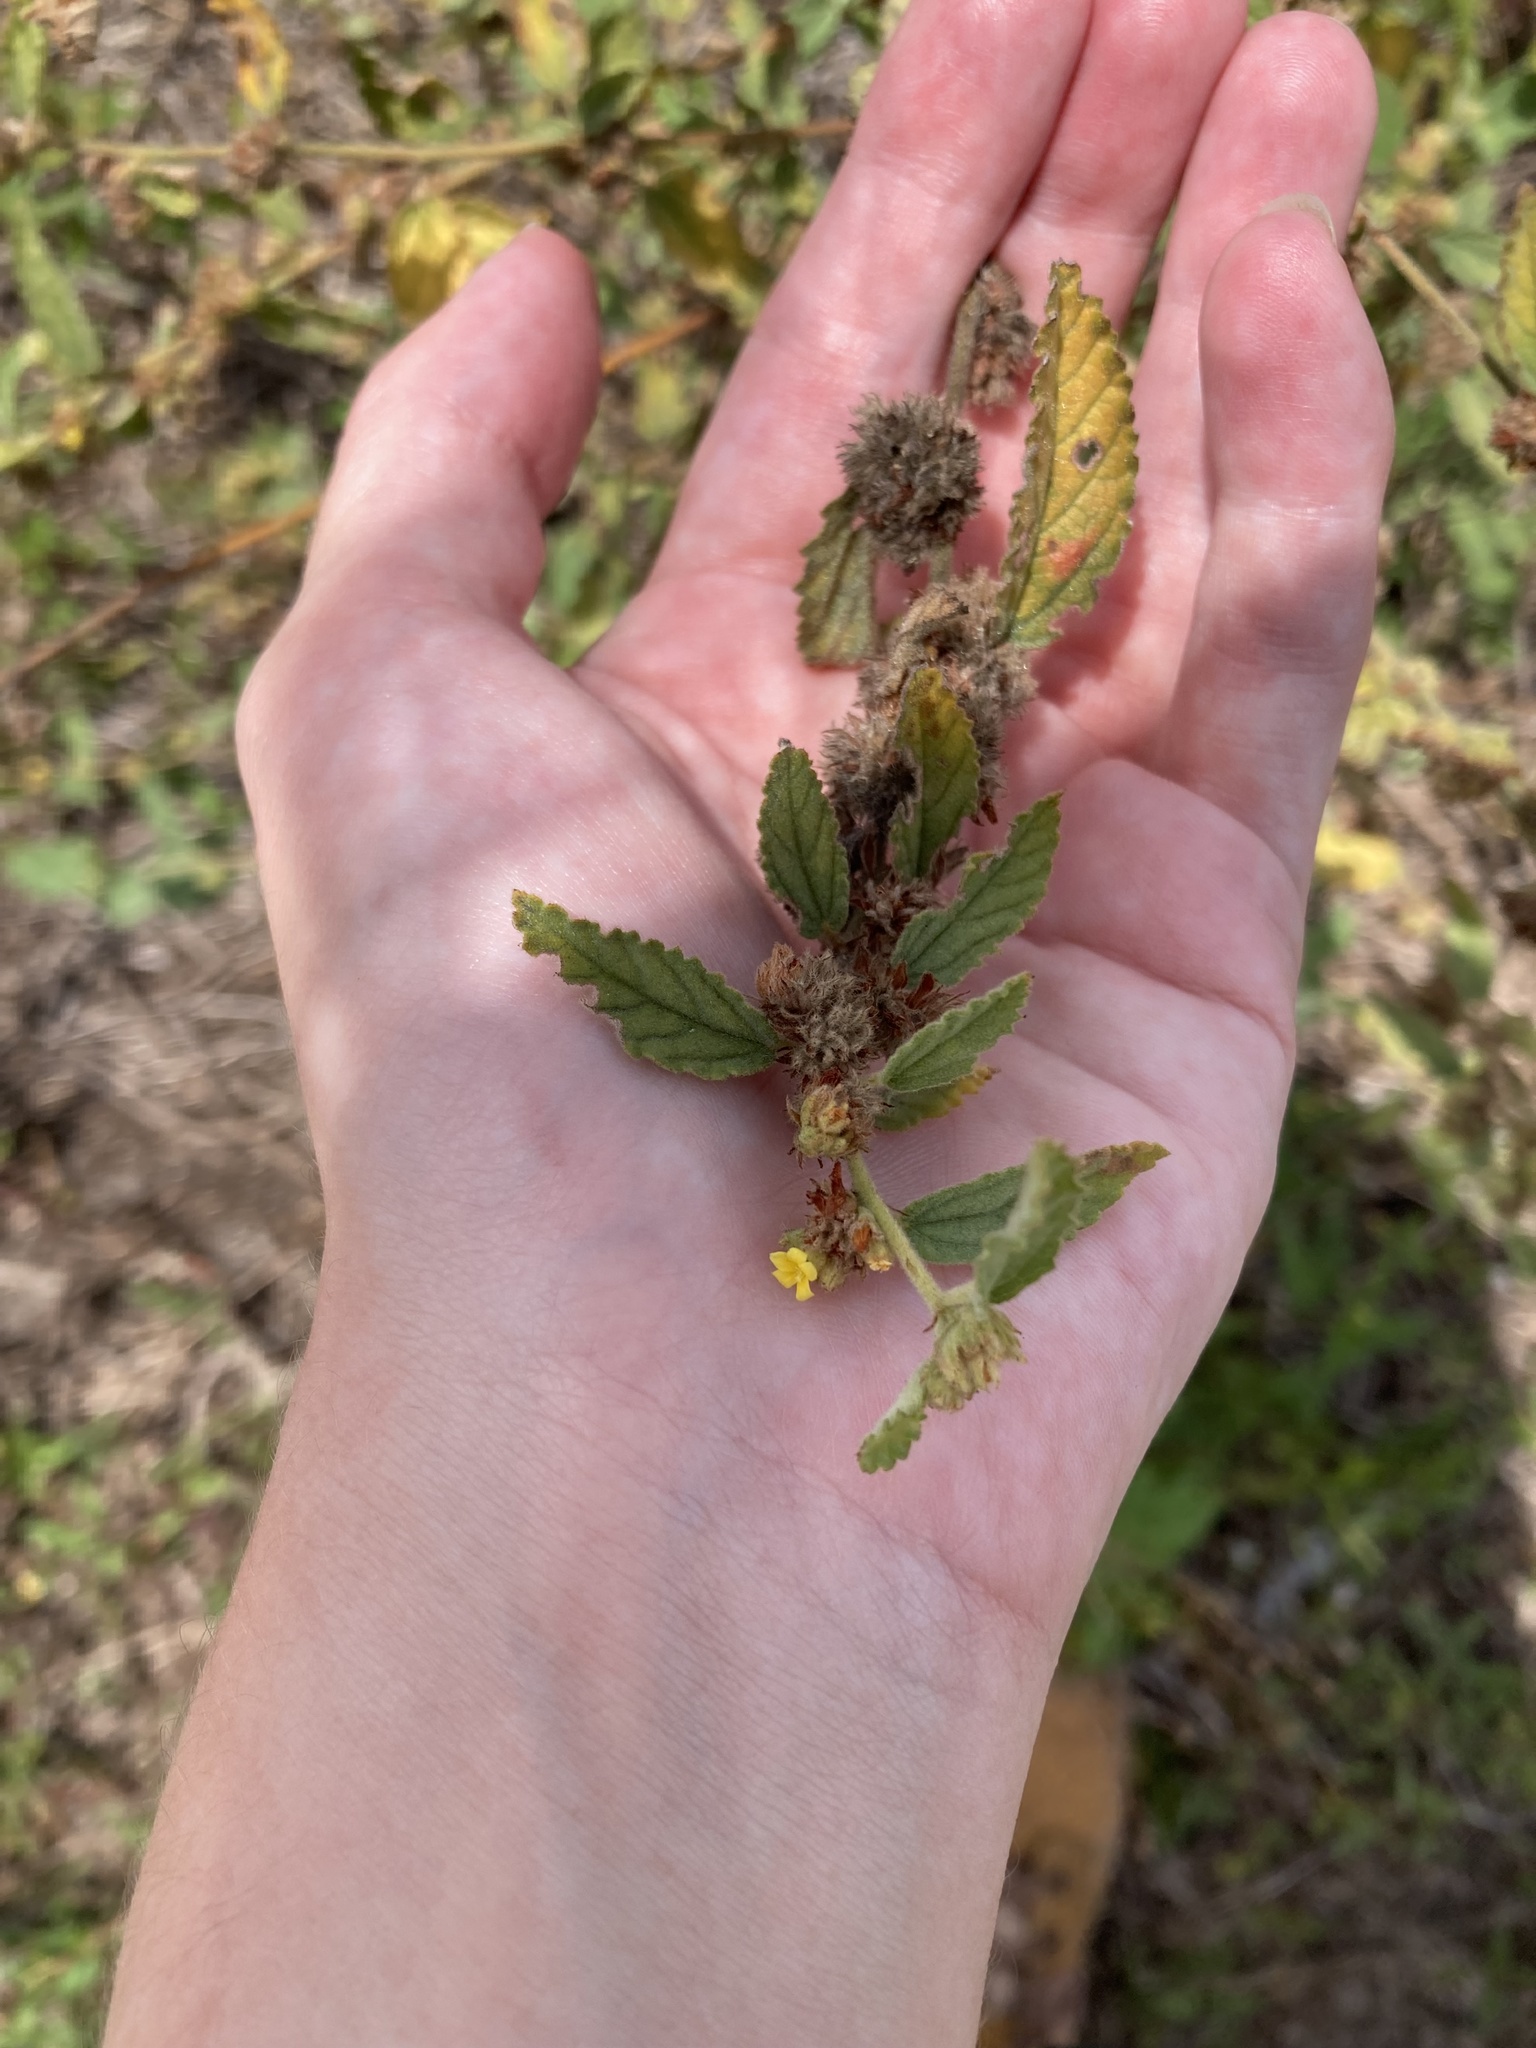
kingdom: Plantae
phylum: Tracheophyta
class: Magnoliopsida
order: Malvales
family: Malvaceae
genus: Waltheria
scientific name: Waltheria indica
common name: Leather-coat
